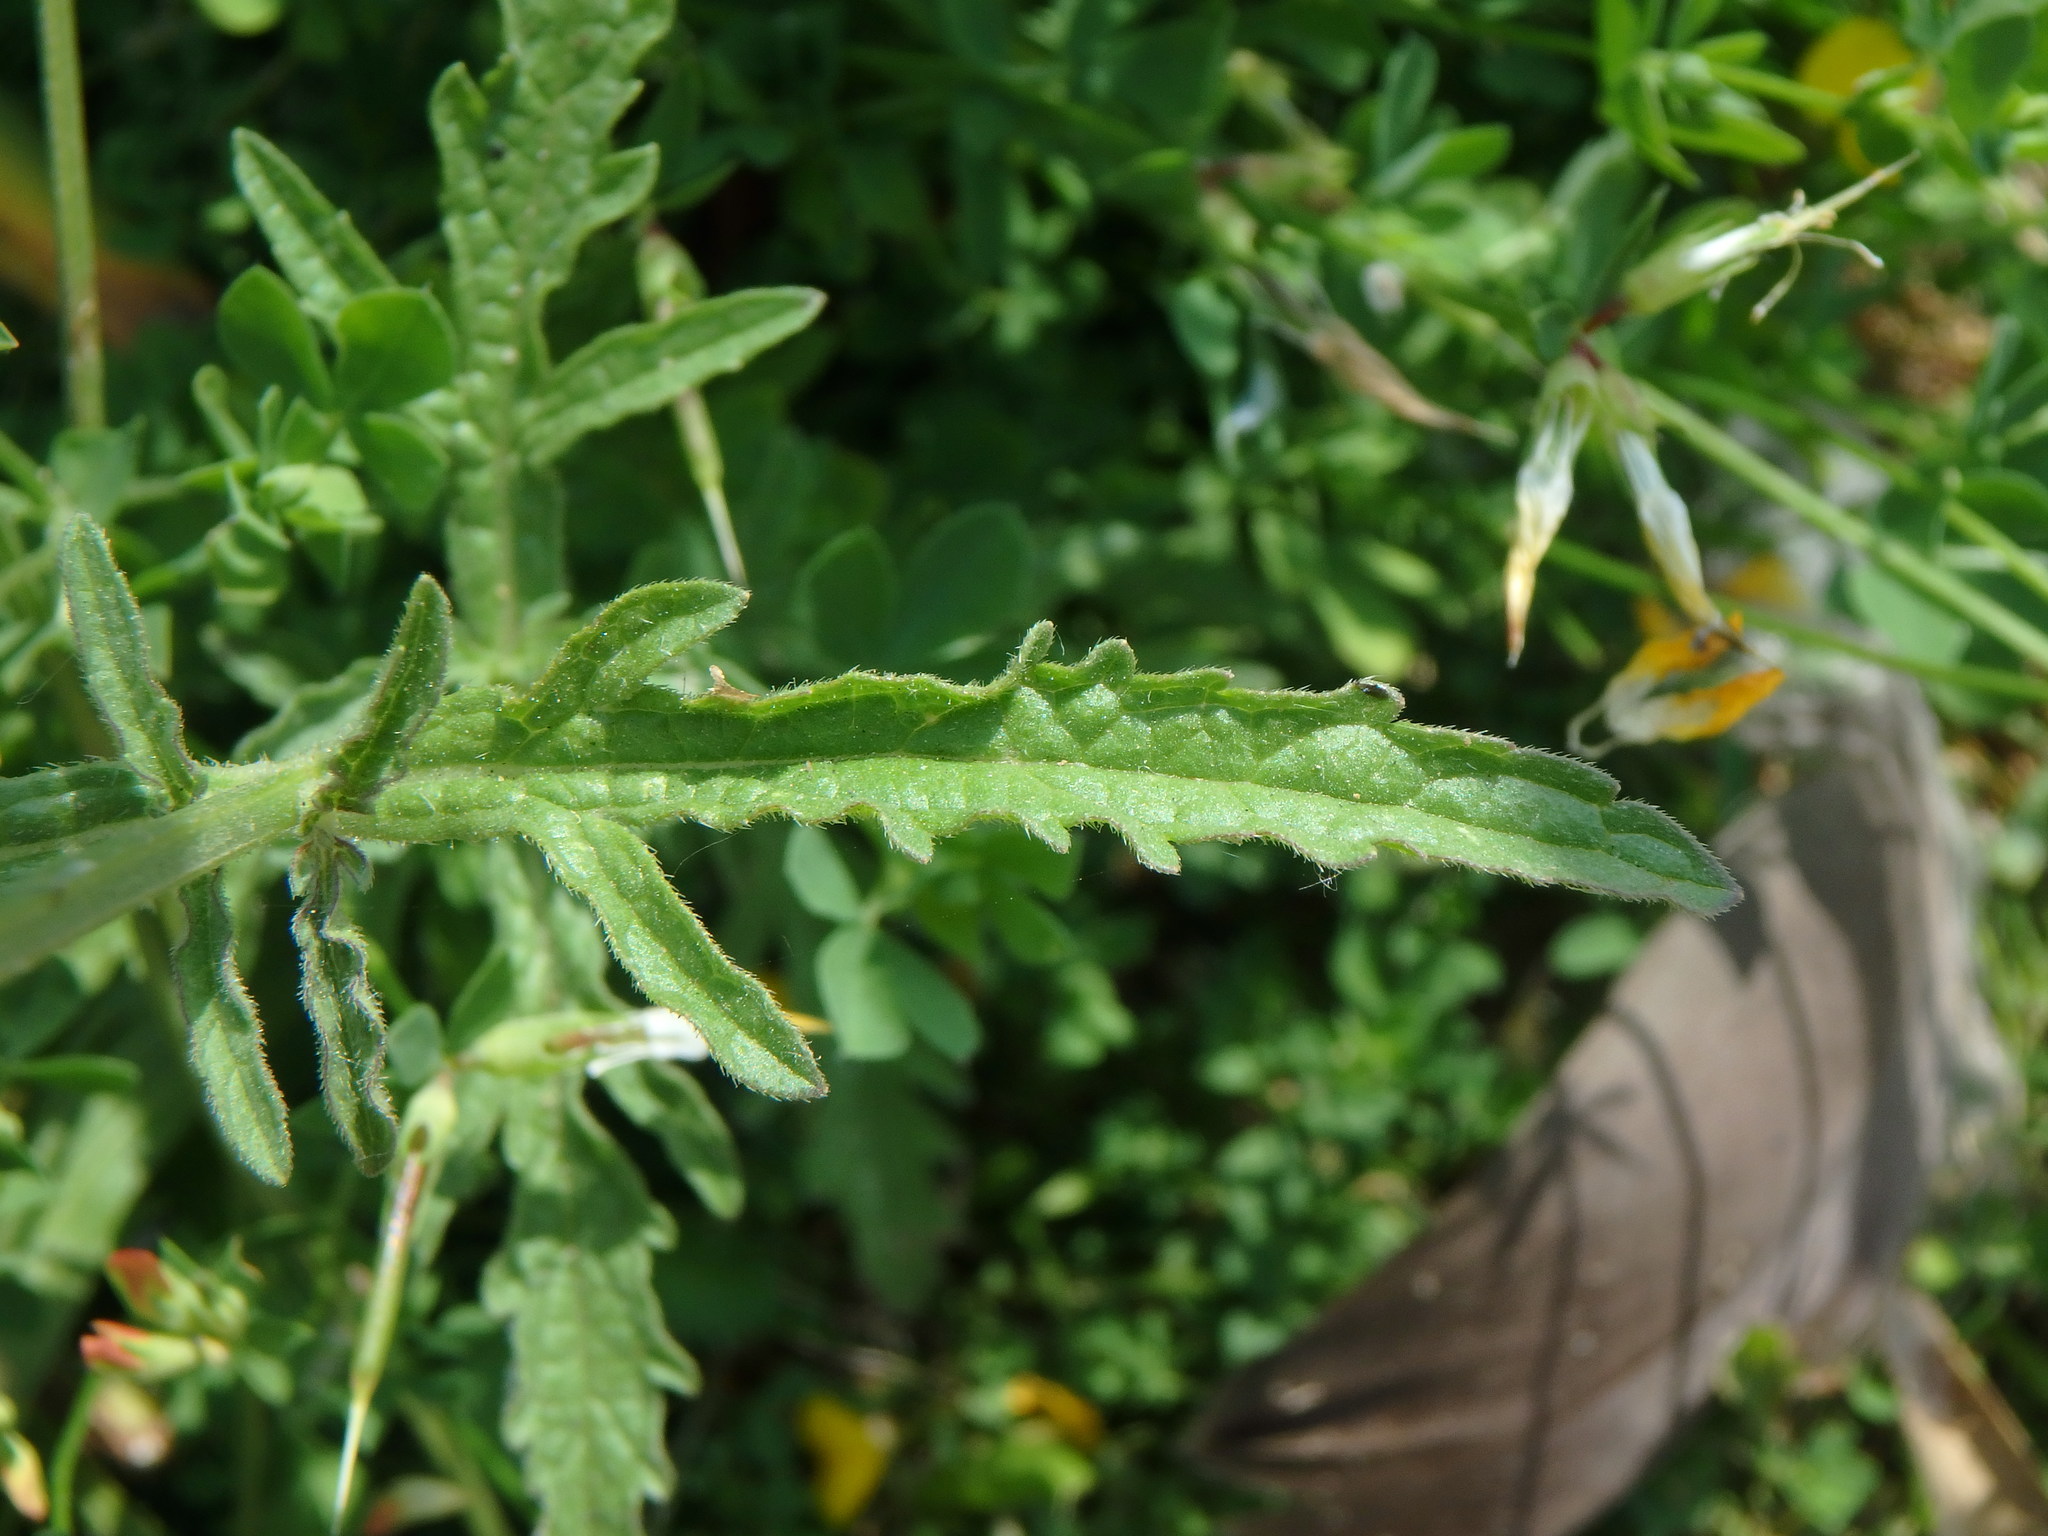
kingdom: Plantae
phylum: Tracheophyta
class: Magnoliopsida
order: Lamiales
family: Verbenaceae
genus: Verbena
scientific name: Verbena officinalis
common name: Vervain
